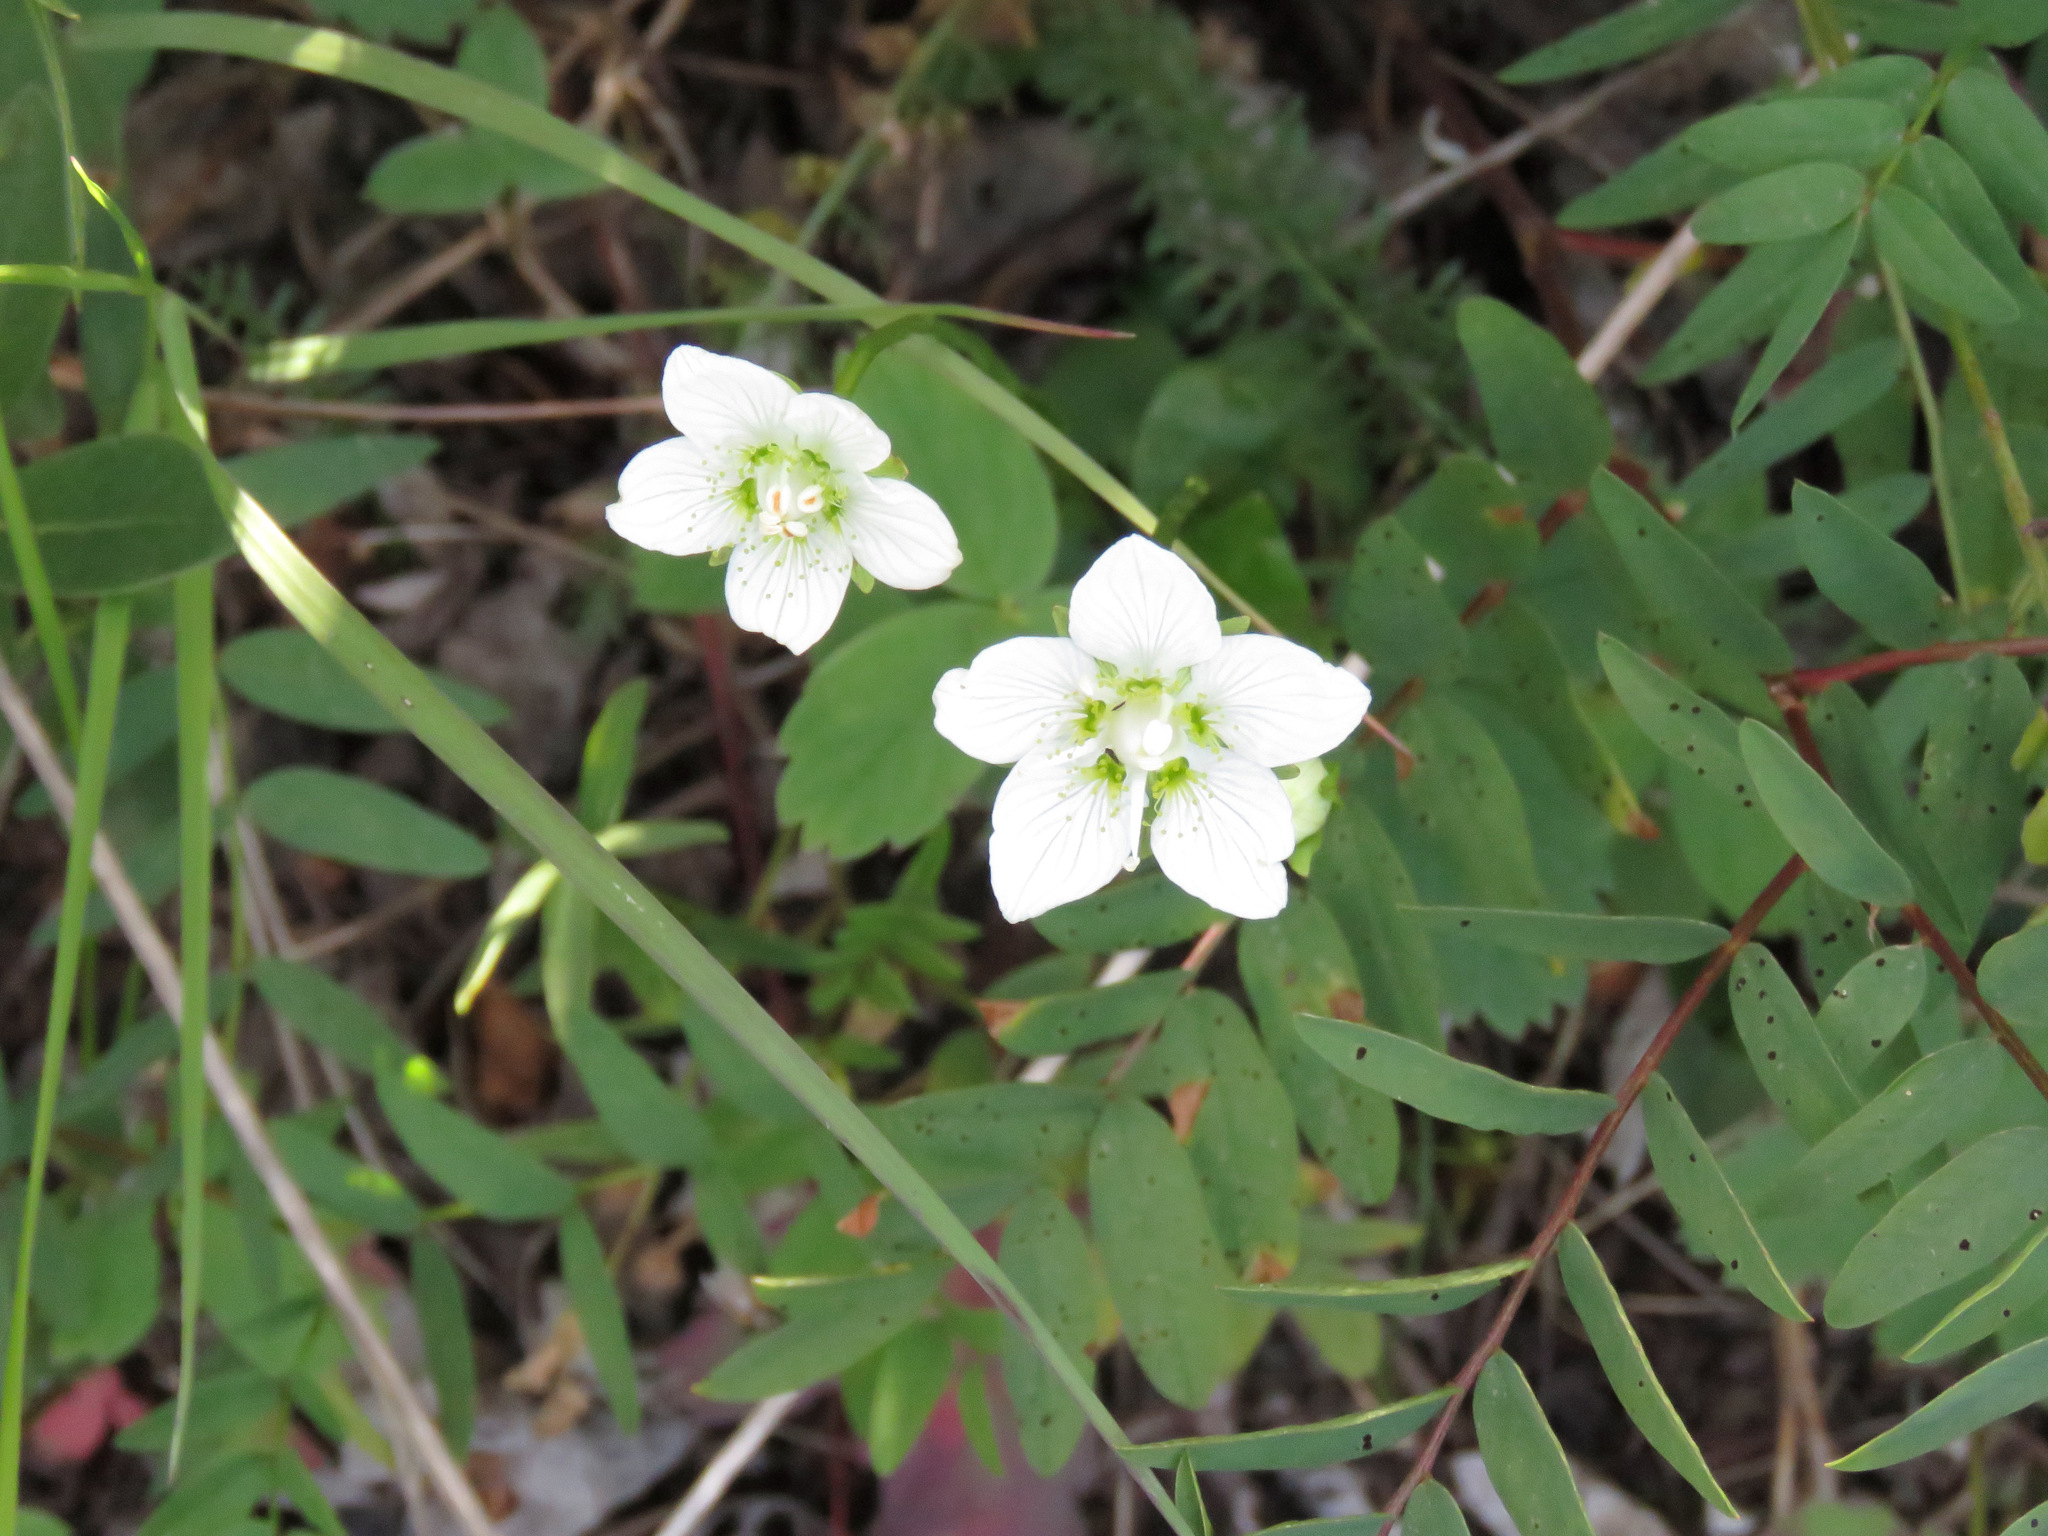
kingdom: Plantae
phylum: Tracheophyta
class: Magnoliopsida
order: Celastrales
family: Parnassiaceae
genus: Parnassia
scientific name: Parnassia palustris
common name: Grass-of-parnassus
